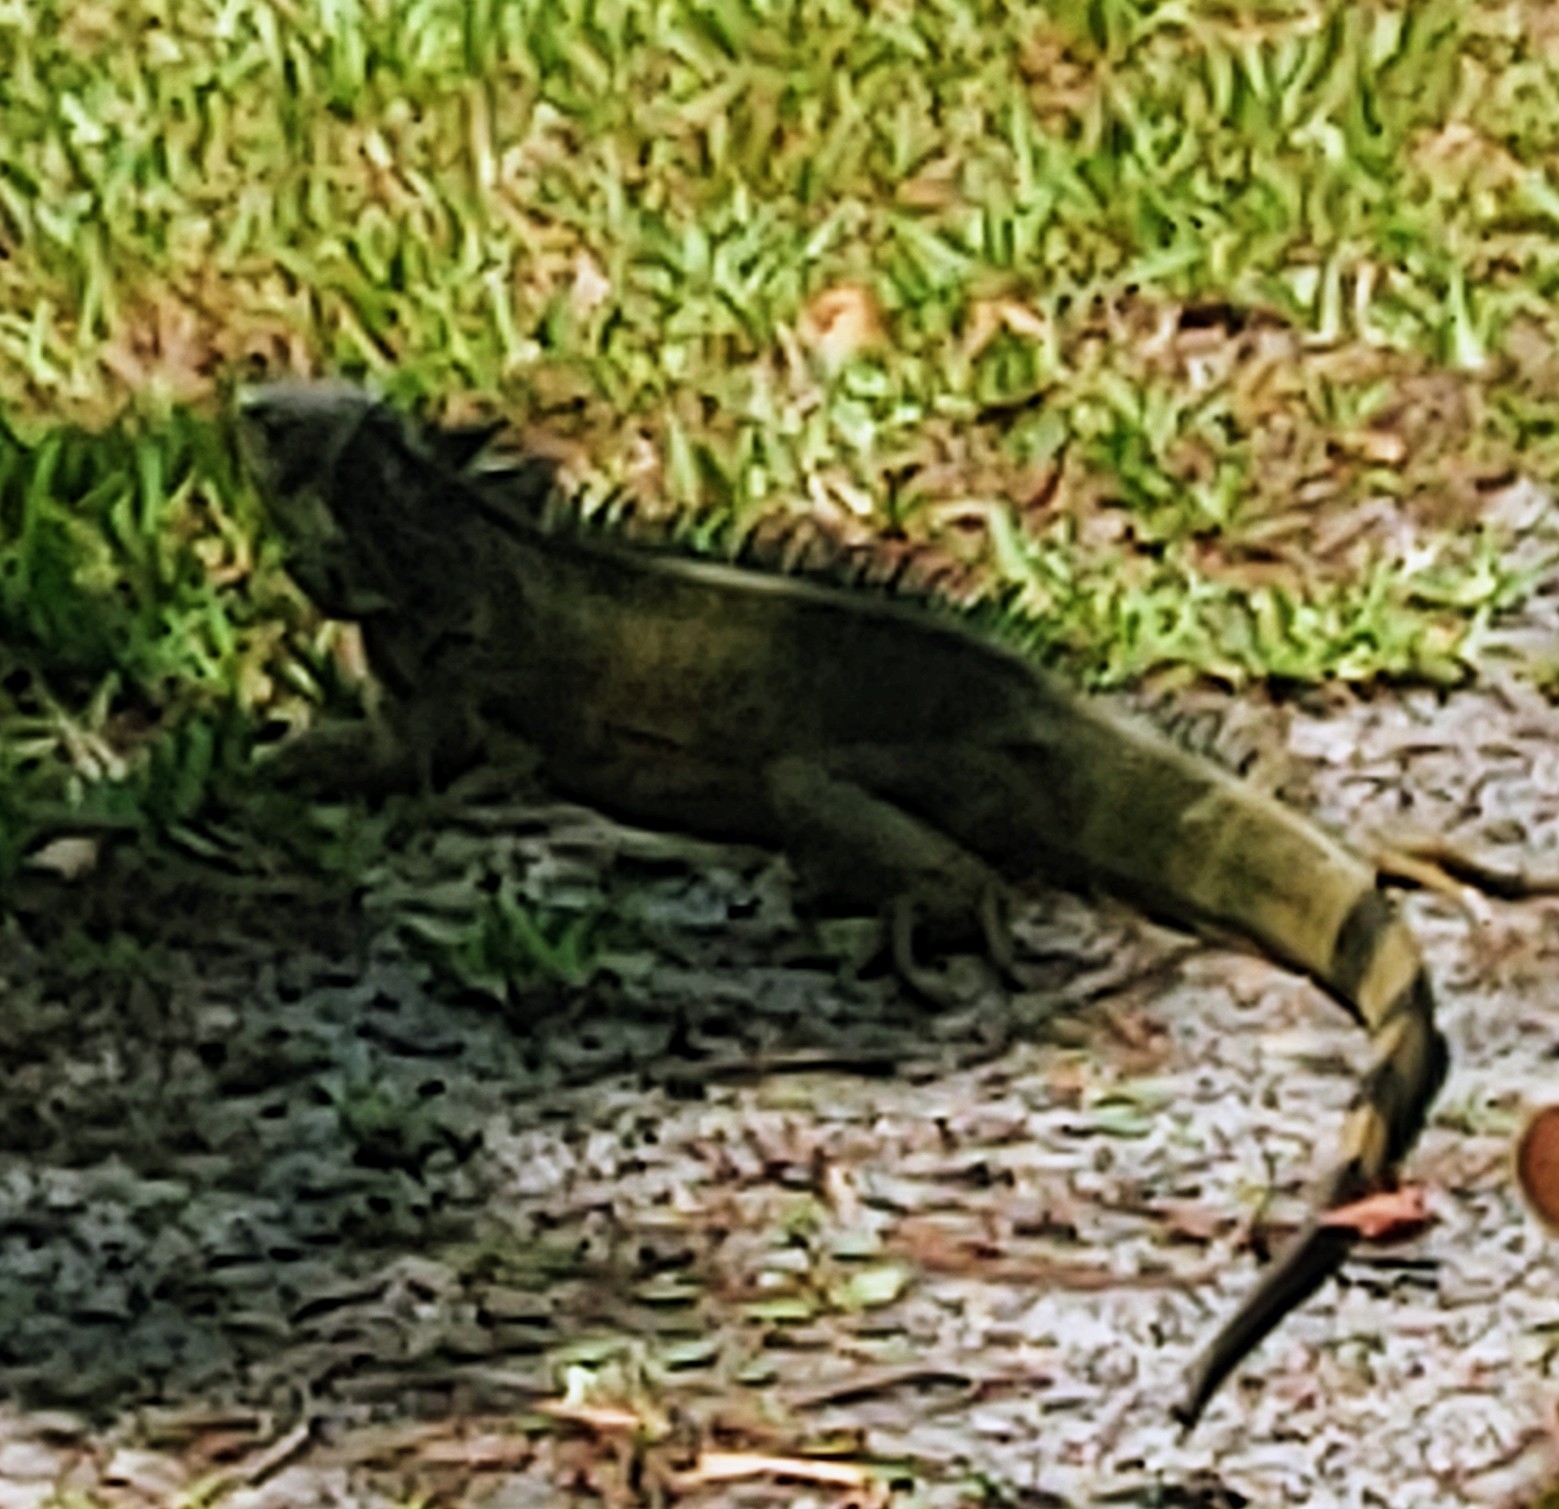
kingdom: Animalia
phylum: Chordata
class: Squamata
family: Iguanidae
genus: Iguana
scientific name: Iguana iguana
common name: Green iguana
